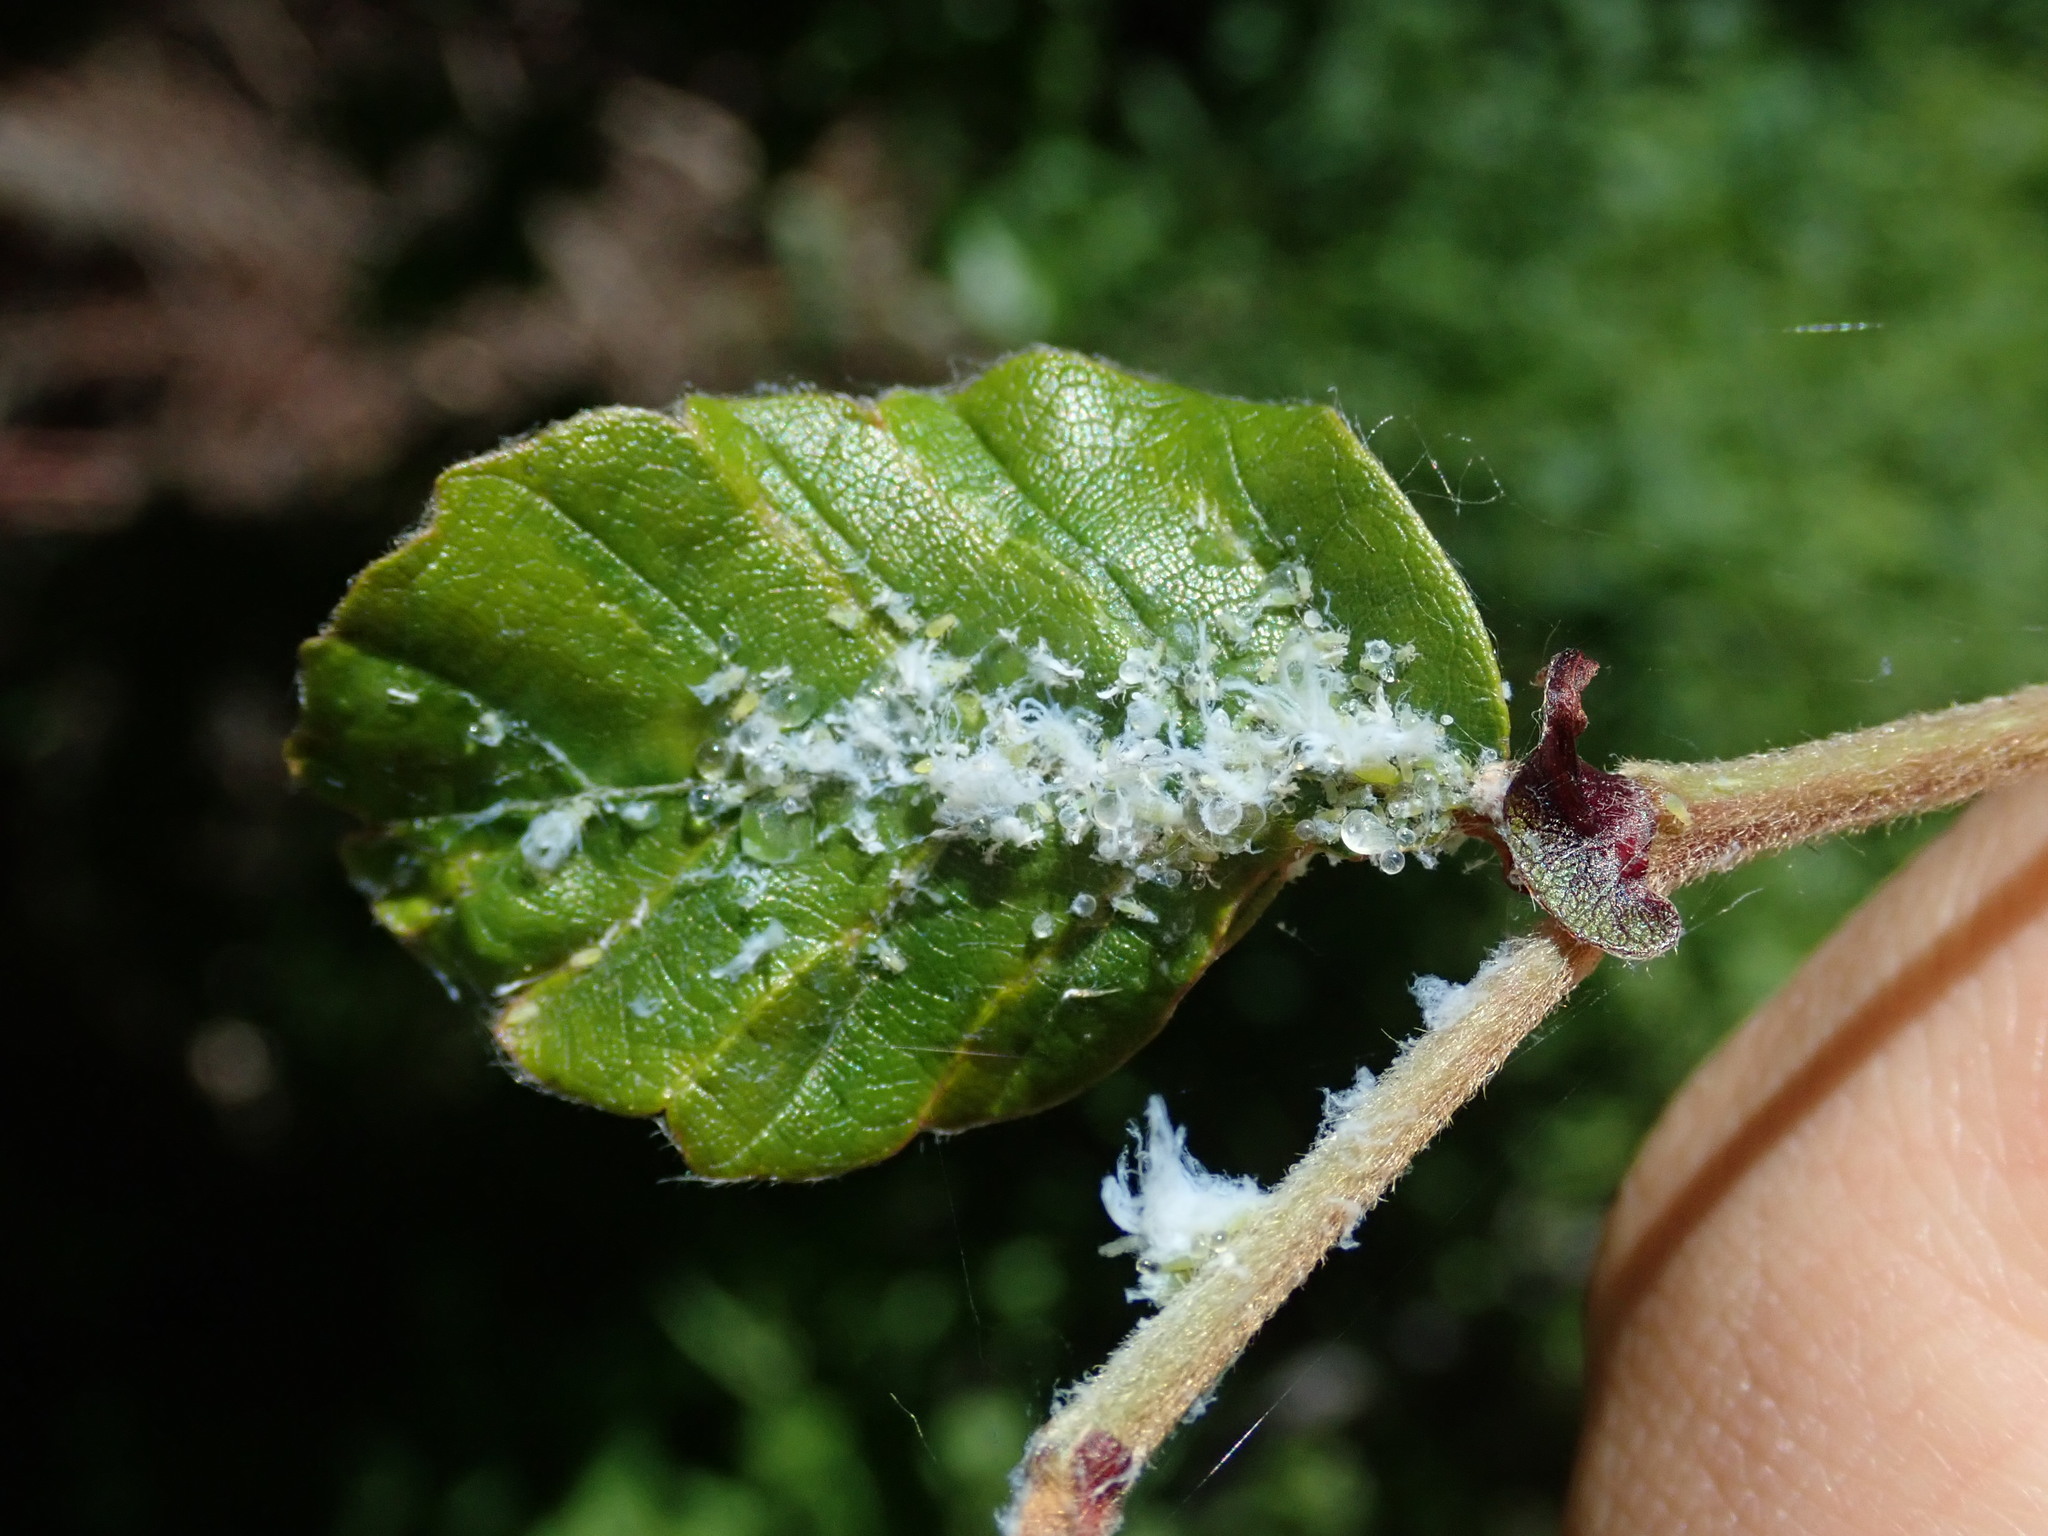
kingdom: Animalia
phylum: Arthropoda
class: Insecta
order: Hemiptera
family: Aphididae
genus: Phyllaphis
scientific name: Phyllaphis fagi
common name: Beech aphid
